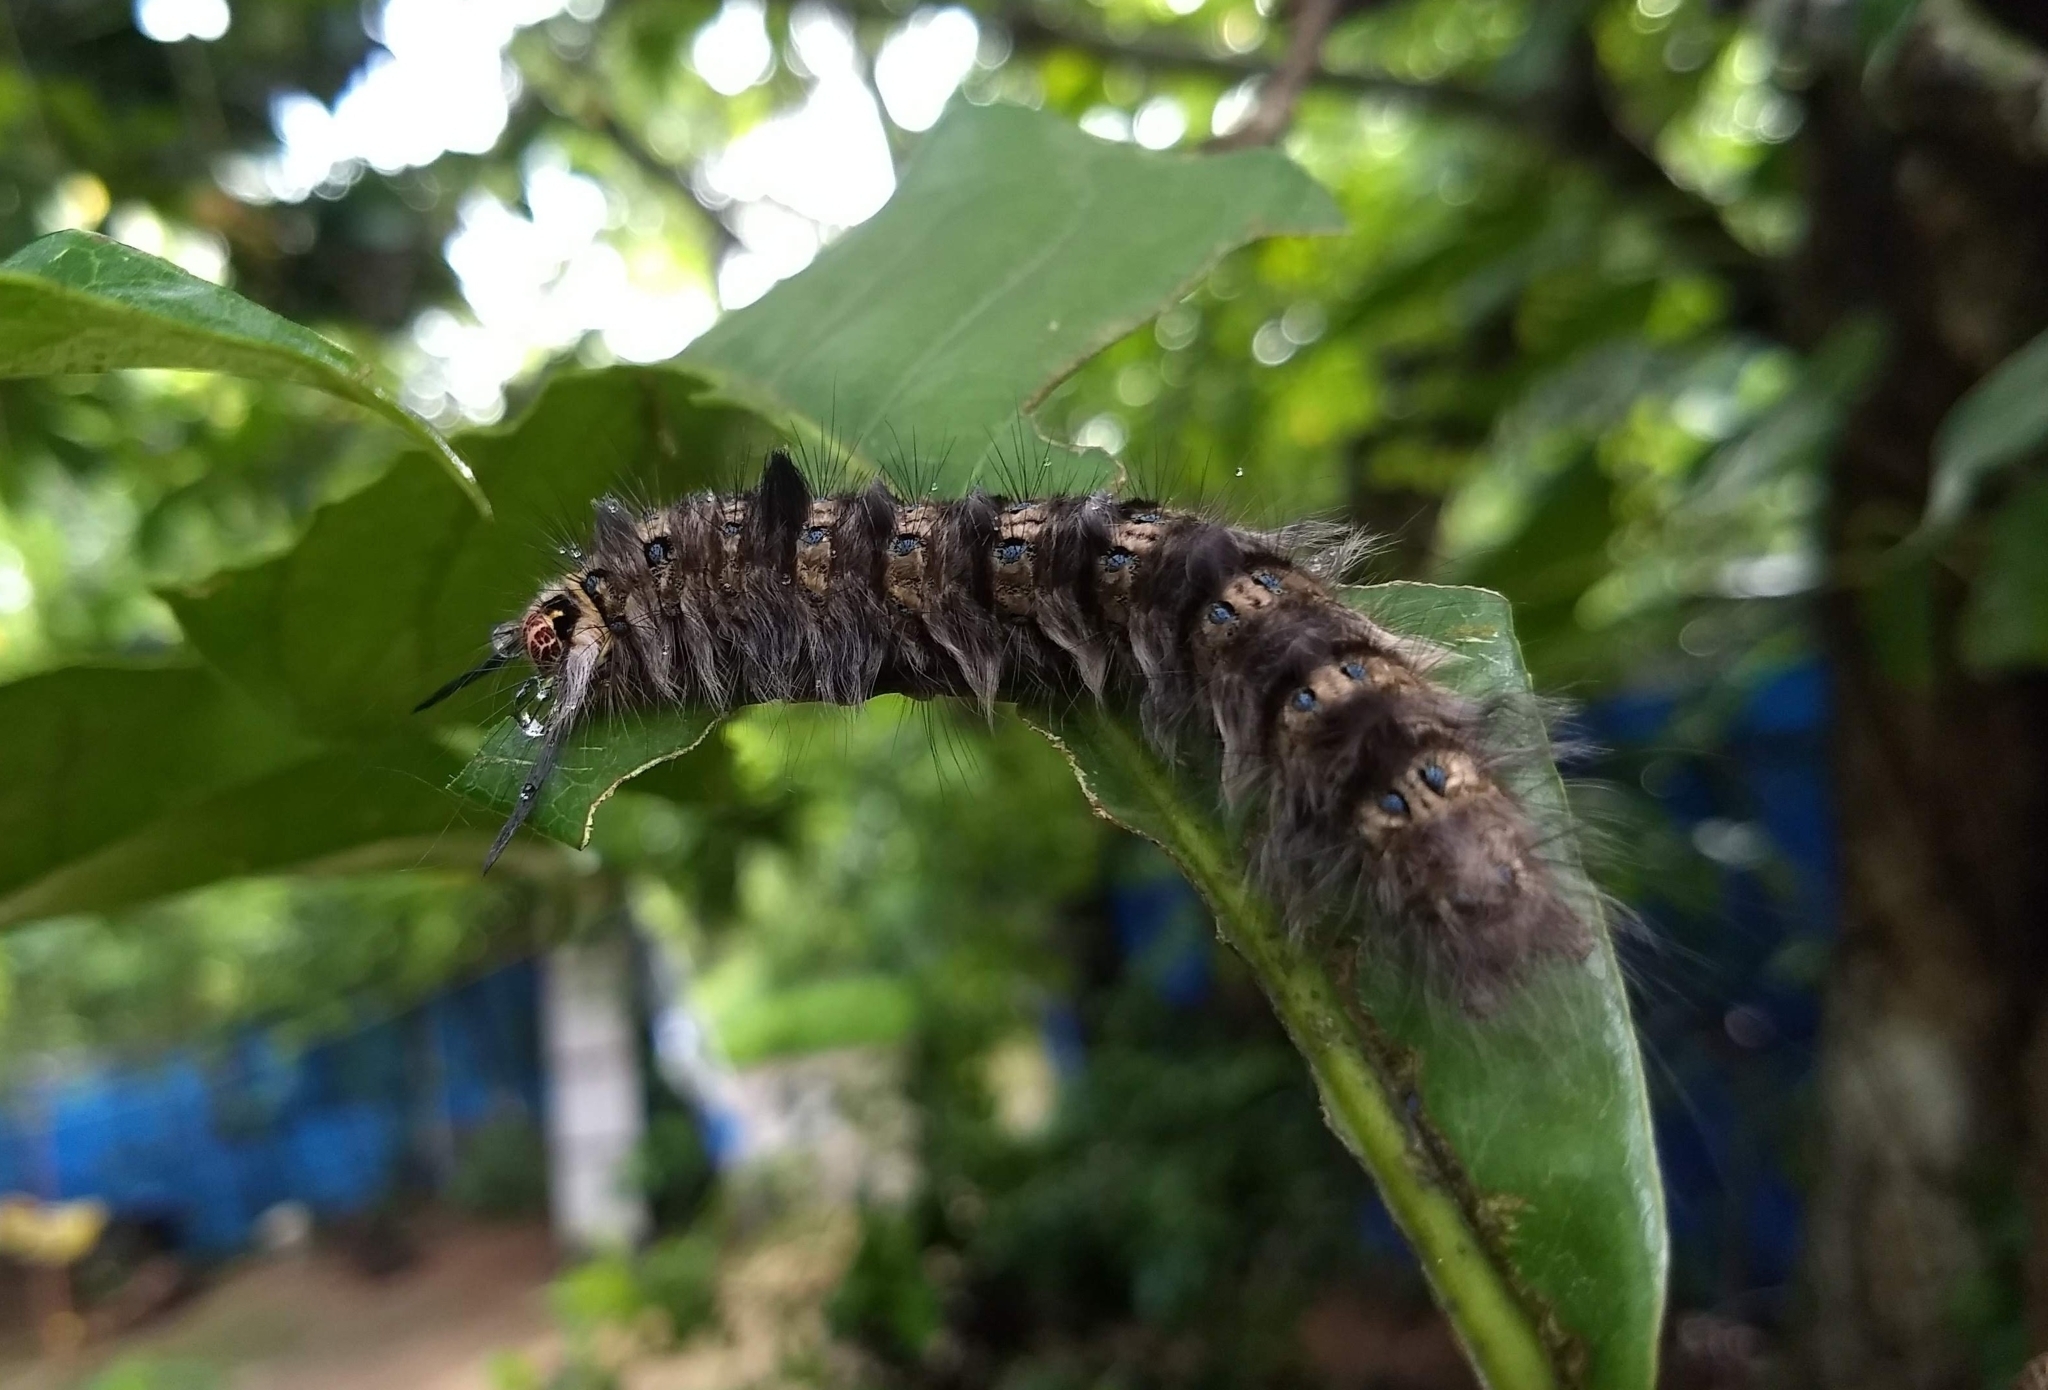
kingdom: Animalia
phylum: Arthropoda
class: Insecta
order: Lepidoptera
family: Lasiocampidae
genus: Trabala
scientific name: Trabala vishnou
